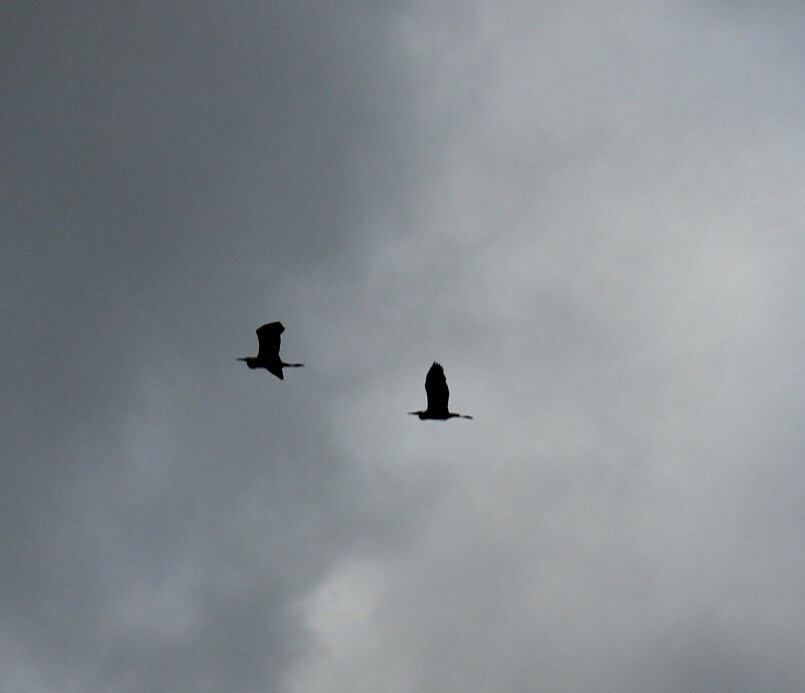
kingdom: Animalia
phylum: Chordata
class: Aves
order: Pelecaniformes
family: Ardeidae
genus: Ardea
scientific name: Ardea cinerea
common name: Grey heron
